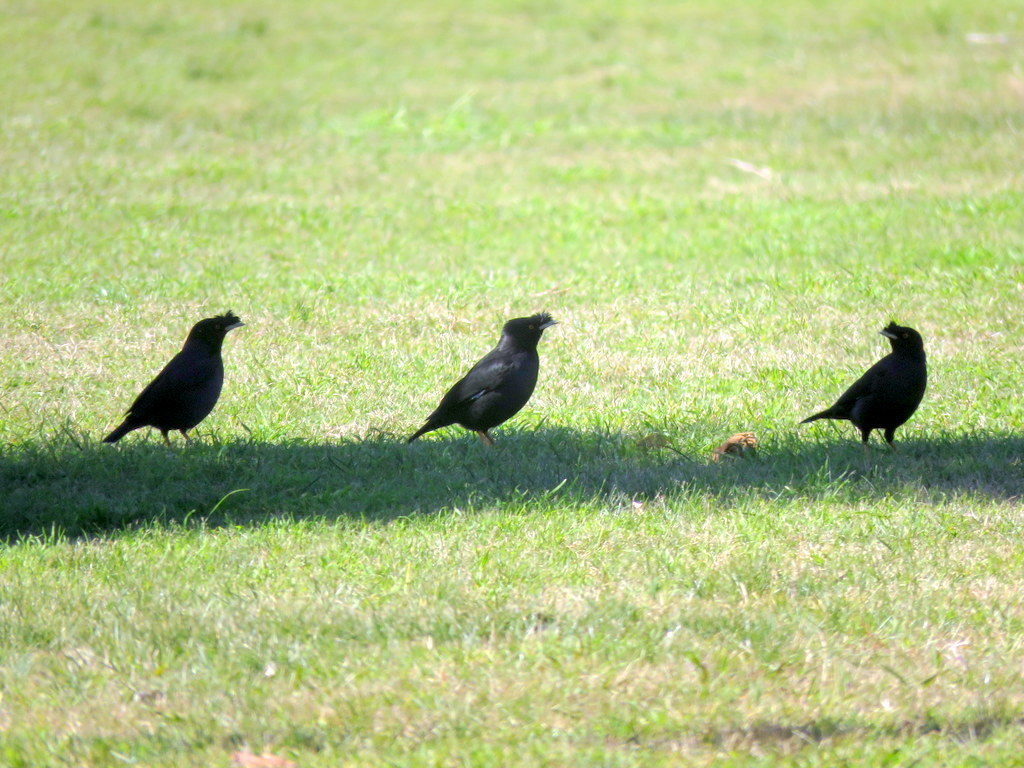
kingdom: Animalia
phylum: Chordata
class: Aves
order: Passeriformes
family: Sturnidae
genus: Acridotheres
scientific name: Acridotheres cristatellus
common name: Crested myna
